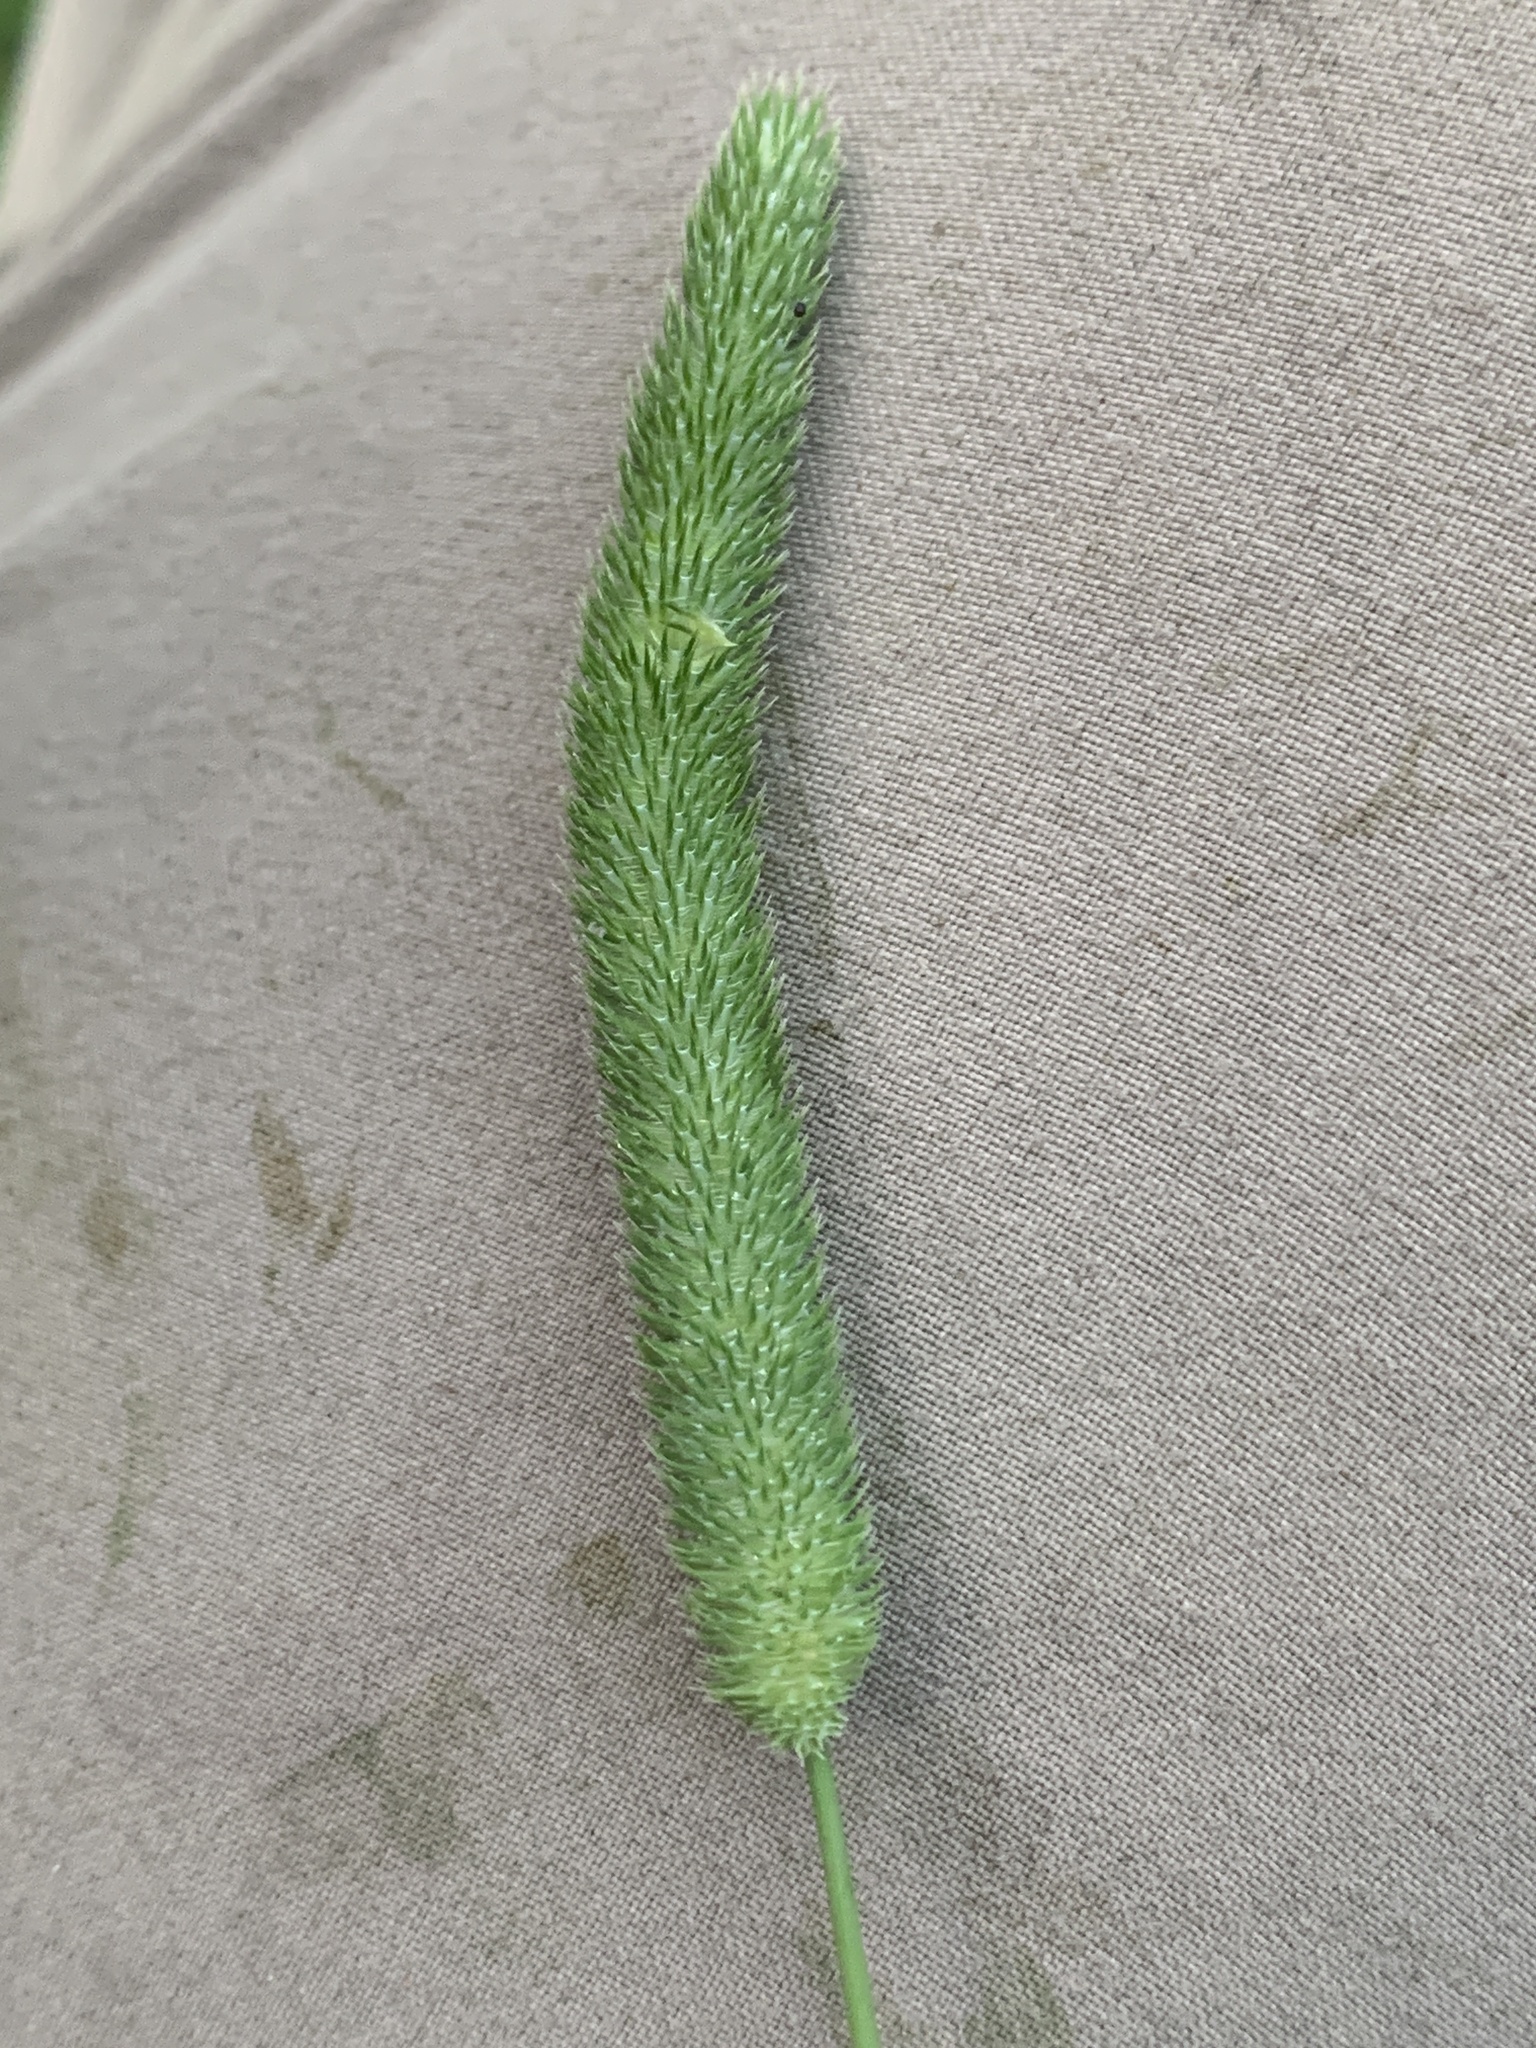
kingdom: Plantae
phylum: Tracheophyta
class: Liliopsida
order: Poales
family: Poaceae
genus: Phleum
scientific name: Phleum pratense
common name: Timothy grass
